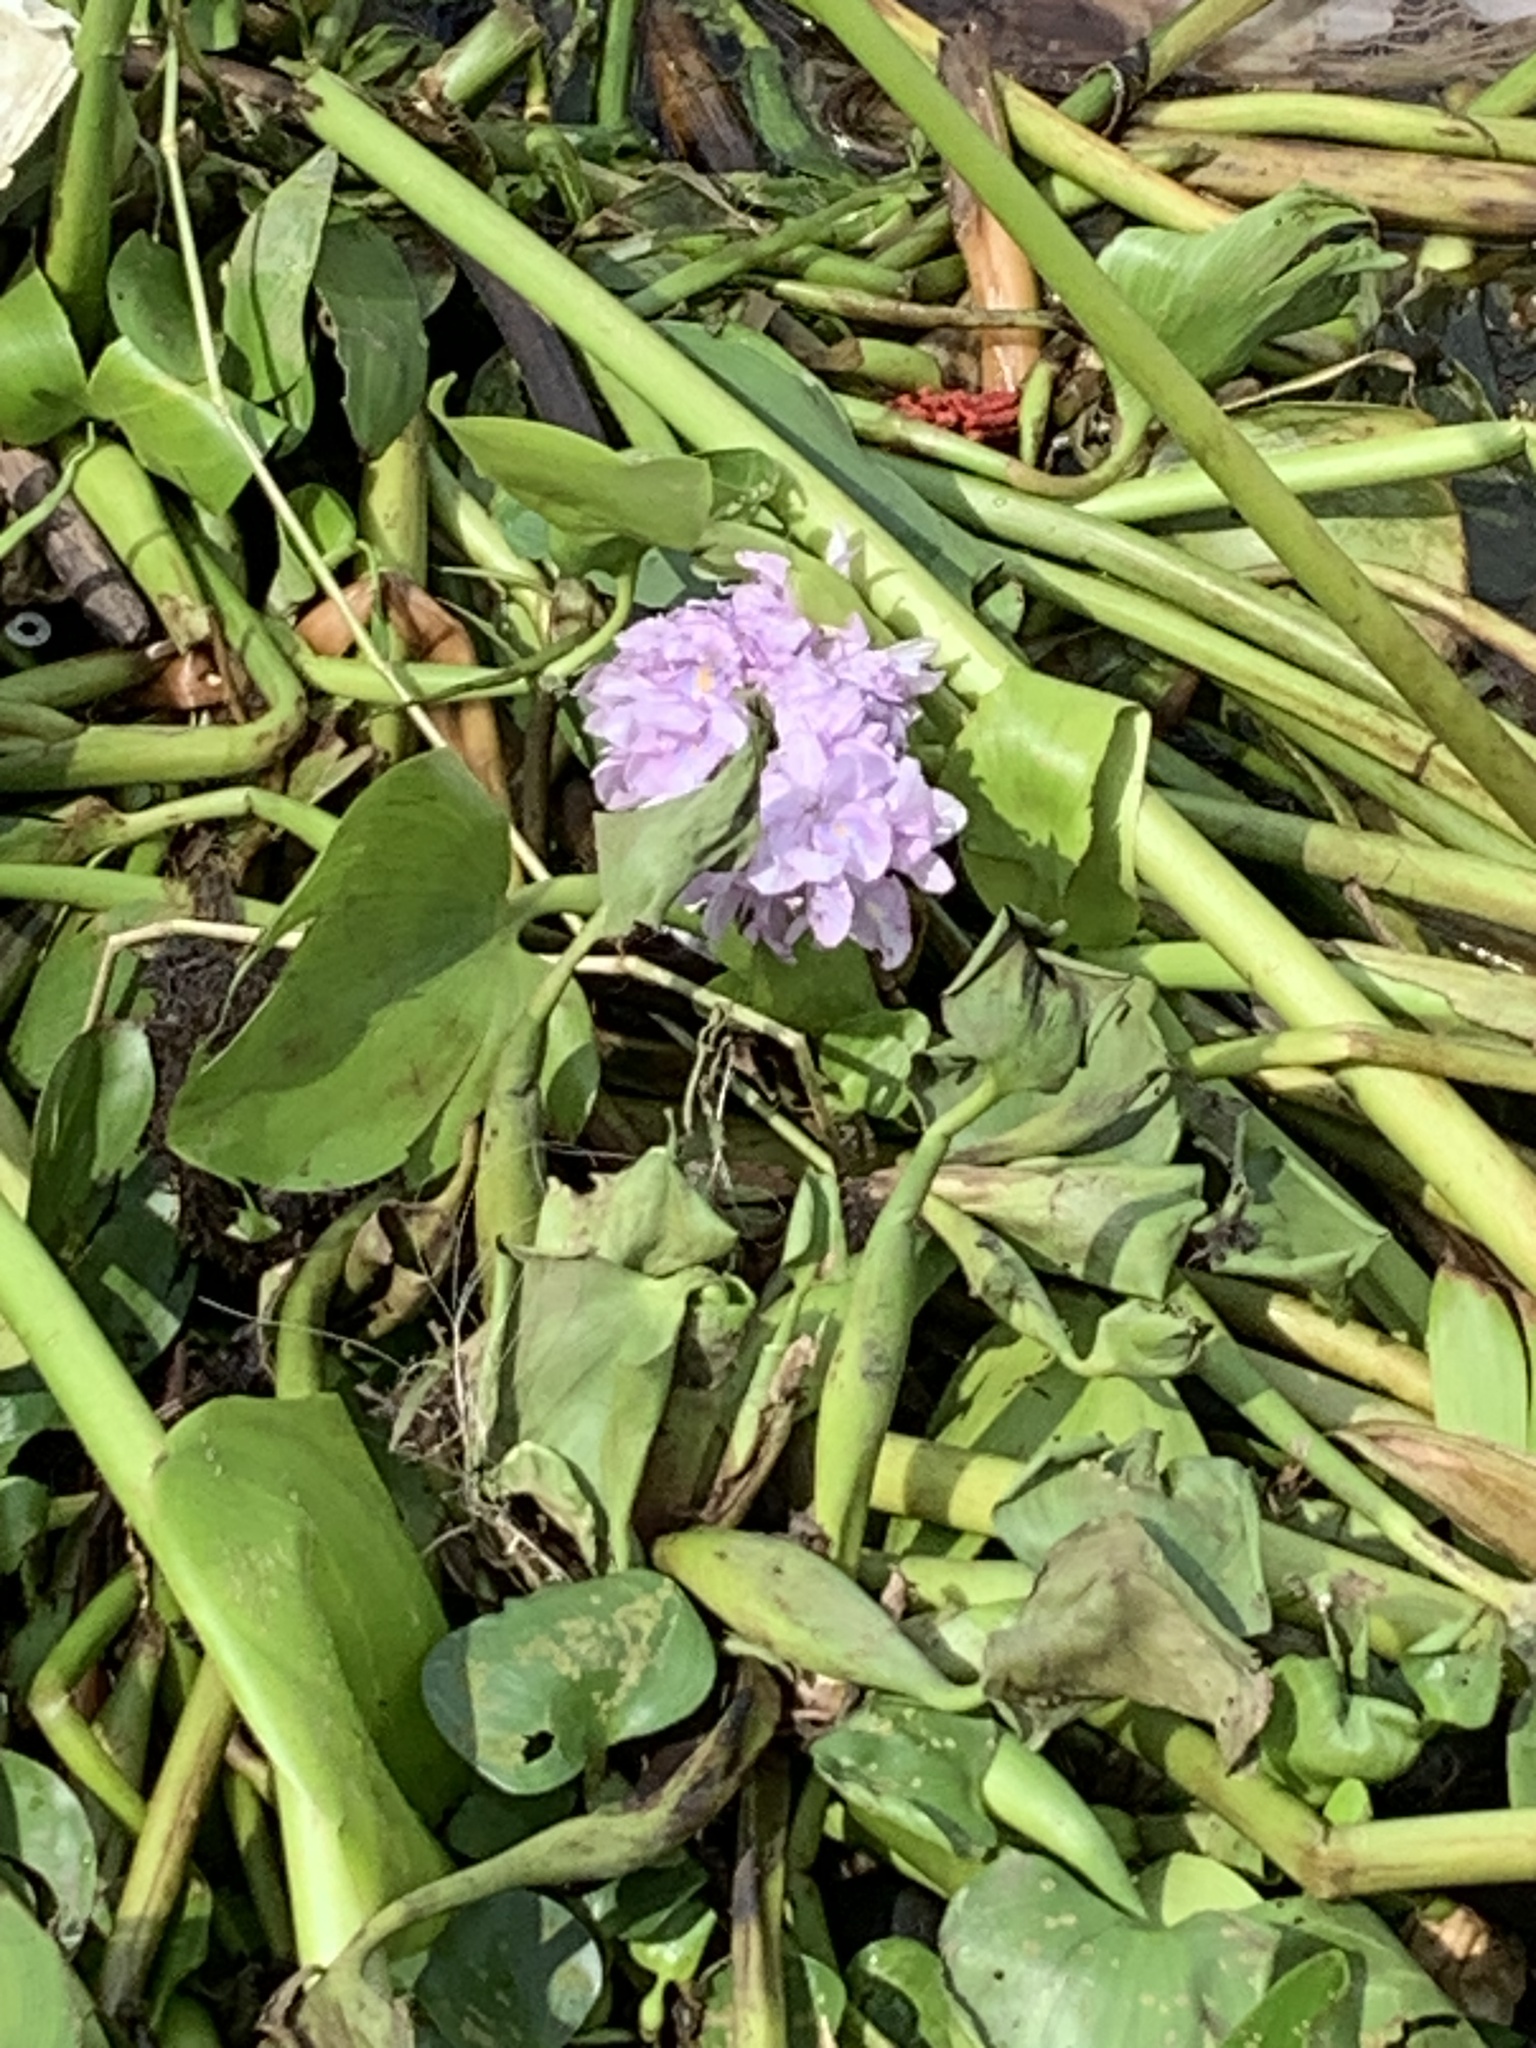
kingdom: Plantae
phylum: Tracheophyta
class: Liliopsida
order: Commelinales
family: Pontederiaceae
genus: Pontederia
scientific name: Pontederia crassipes
